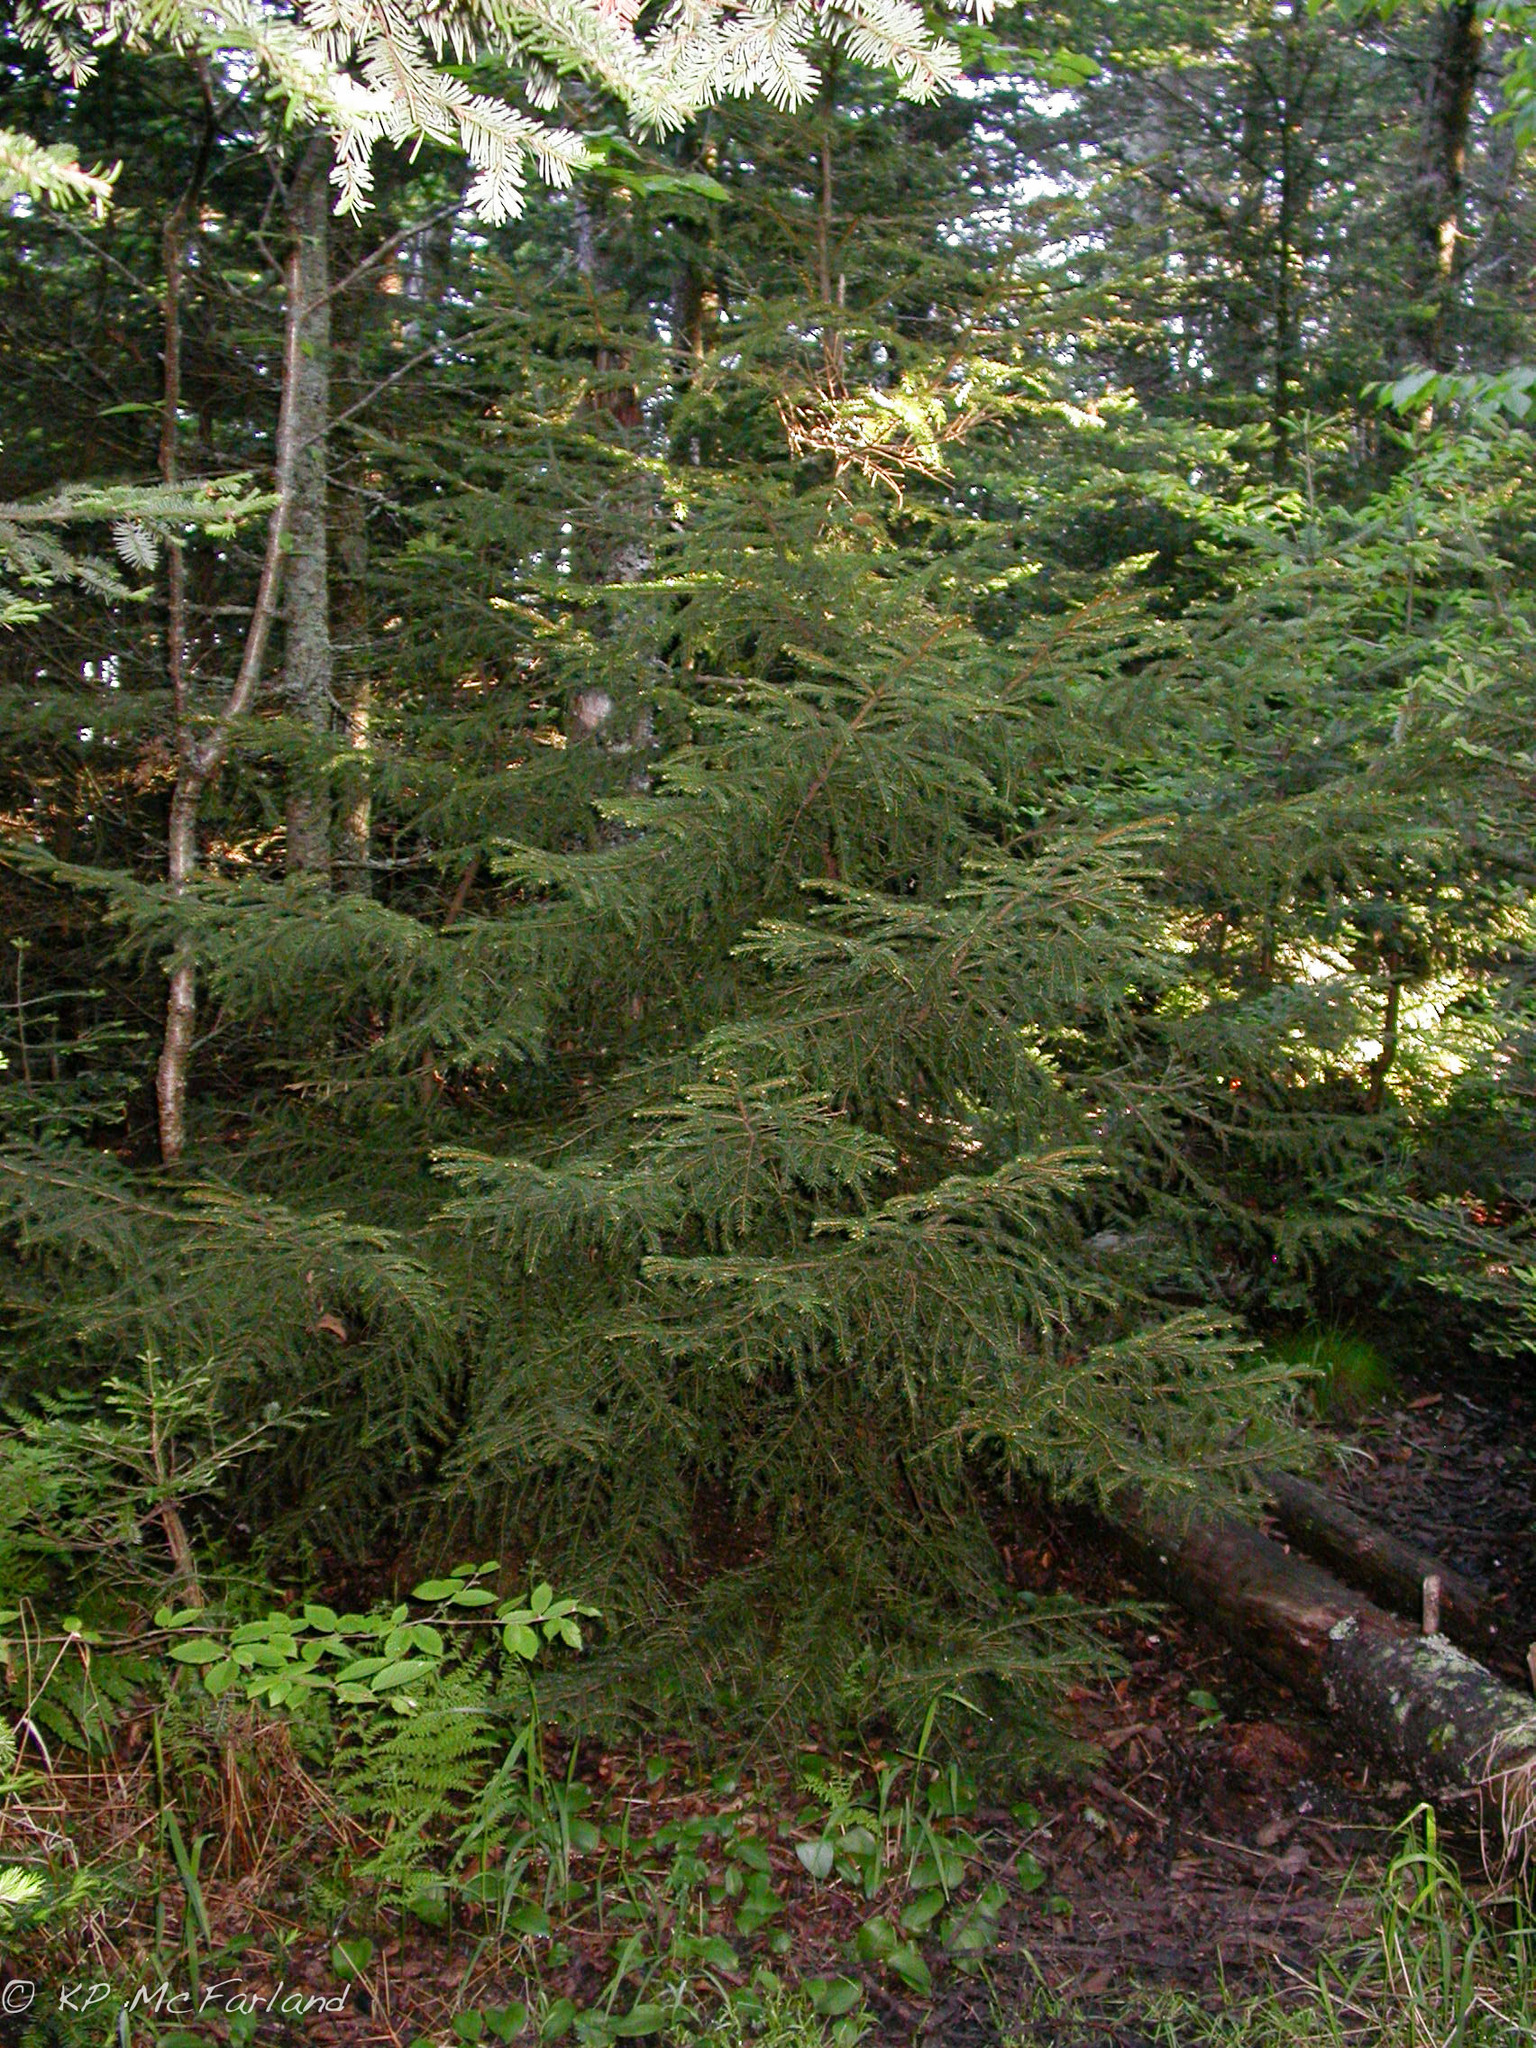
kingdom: Plantae
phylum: Tracheophyta
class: Pinopsida
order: Pinales
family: Pinaceae
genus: Picea
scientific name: Picea rubens
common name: Red spruce
